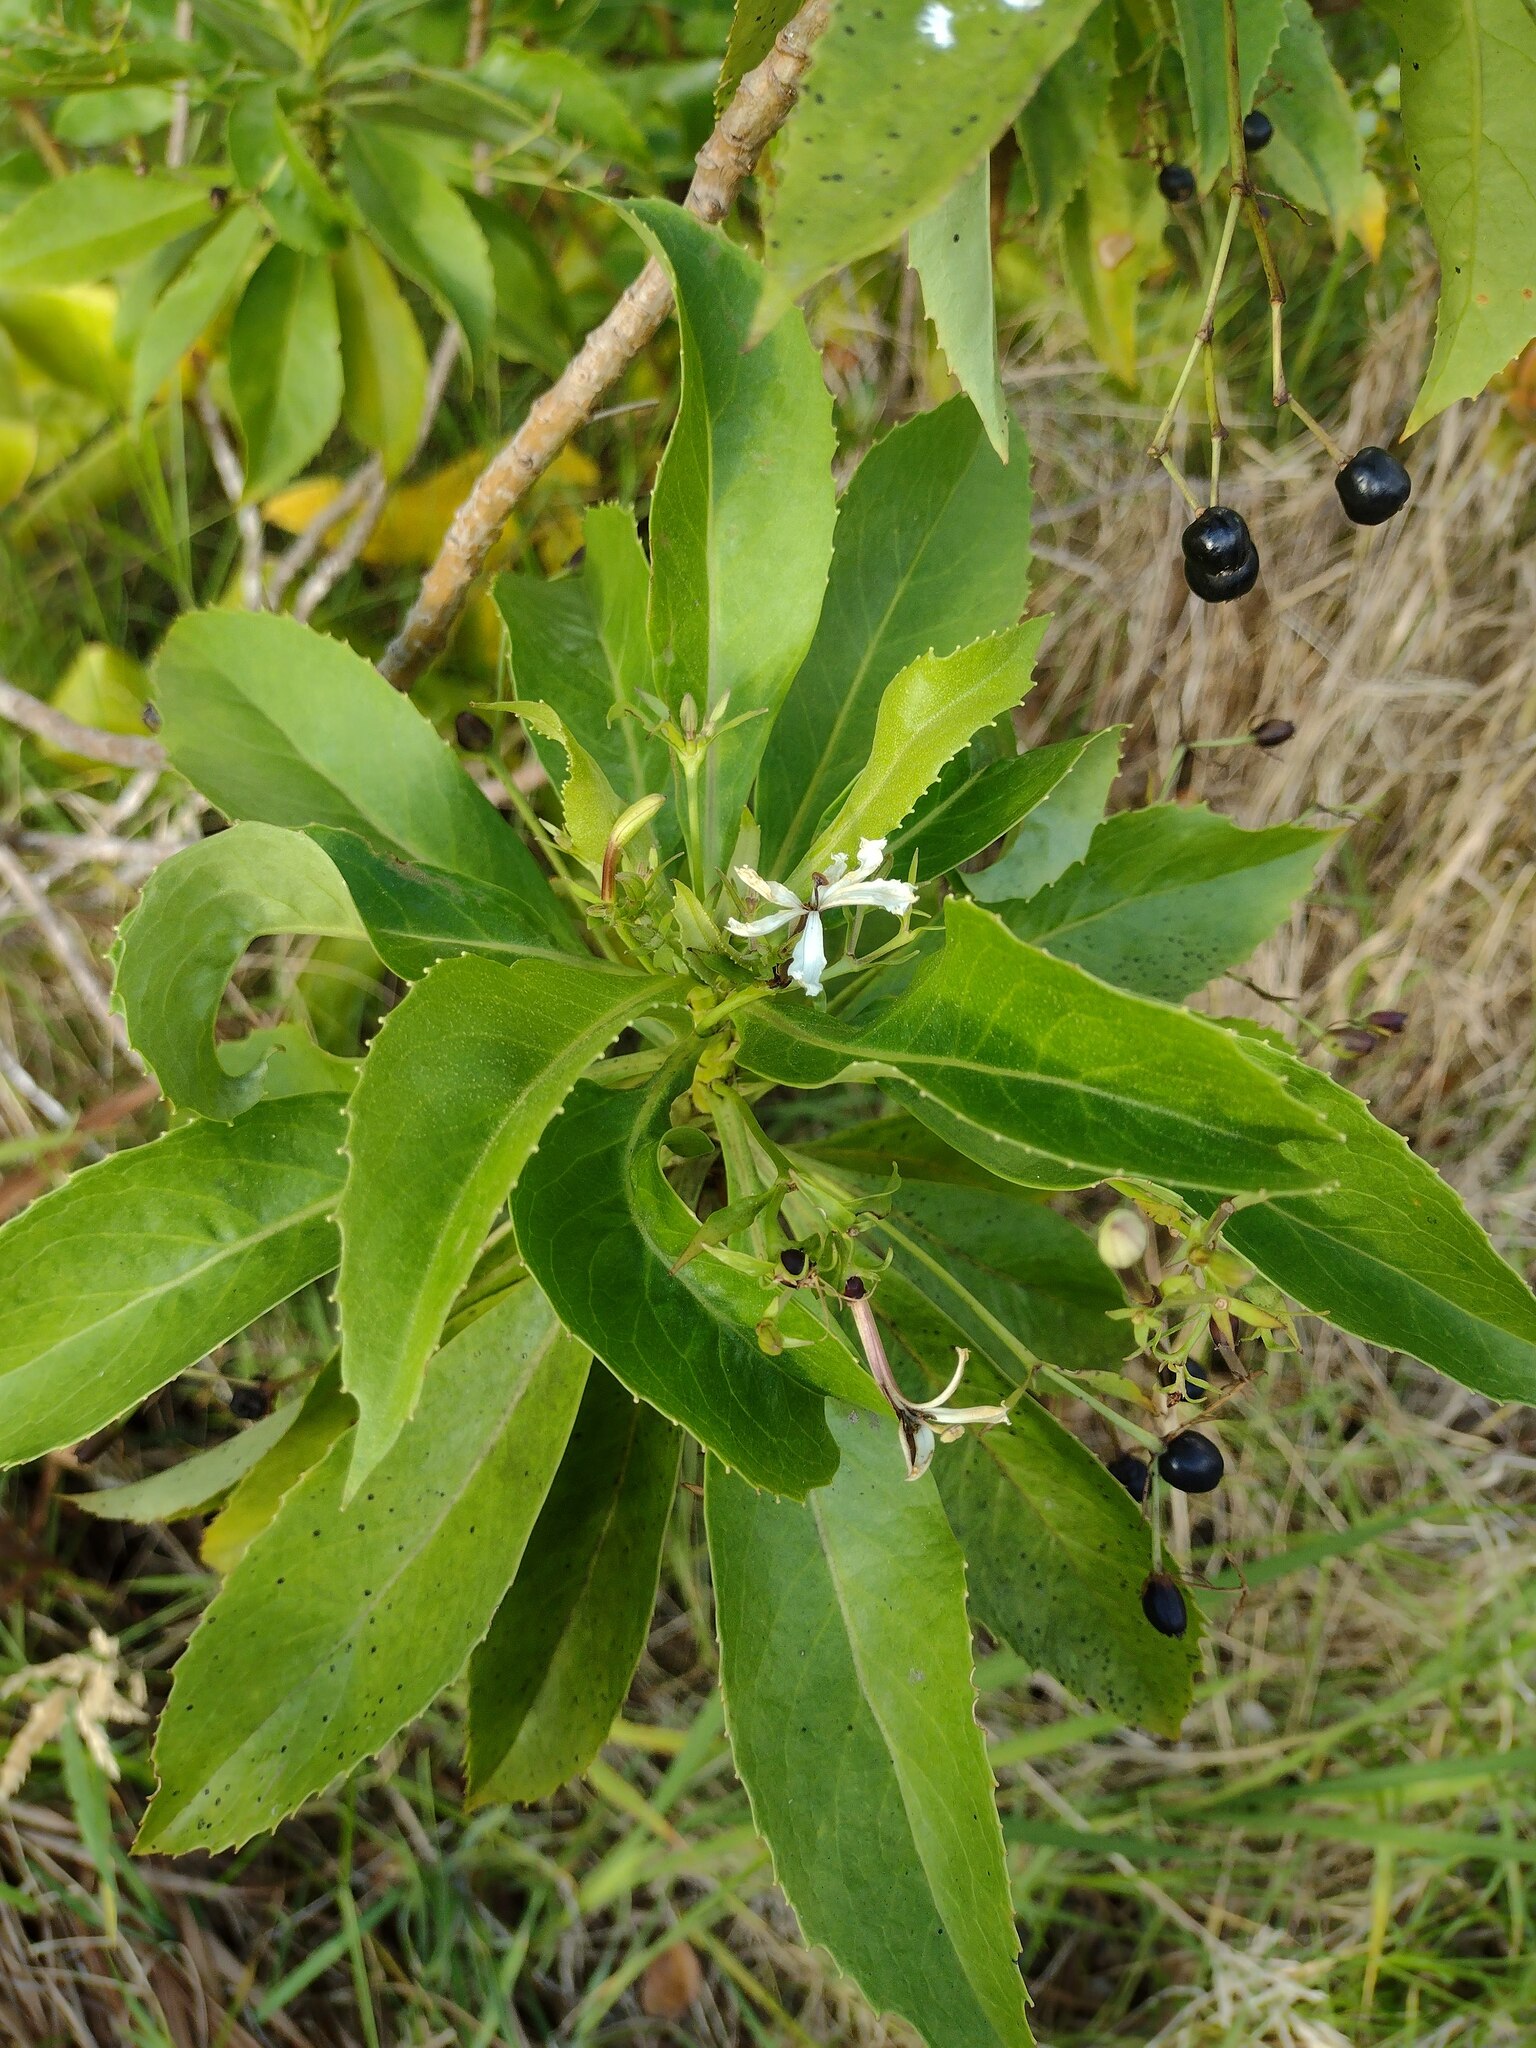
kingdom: Plantae
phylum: Tracheophyta
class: Magnoliopsida
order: Asterales
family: Goodeniaceae
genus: Scaevola
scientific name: Scaevola chamissoniana
